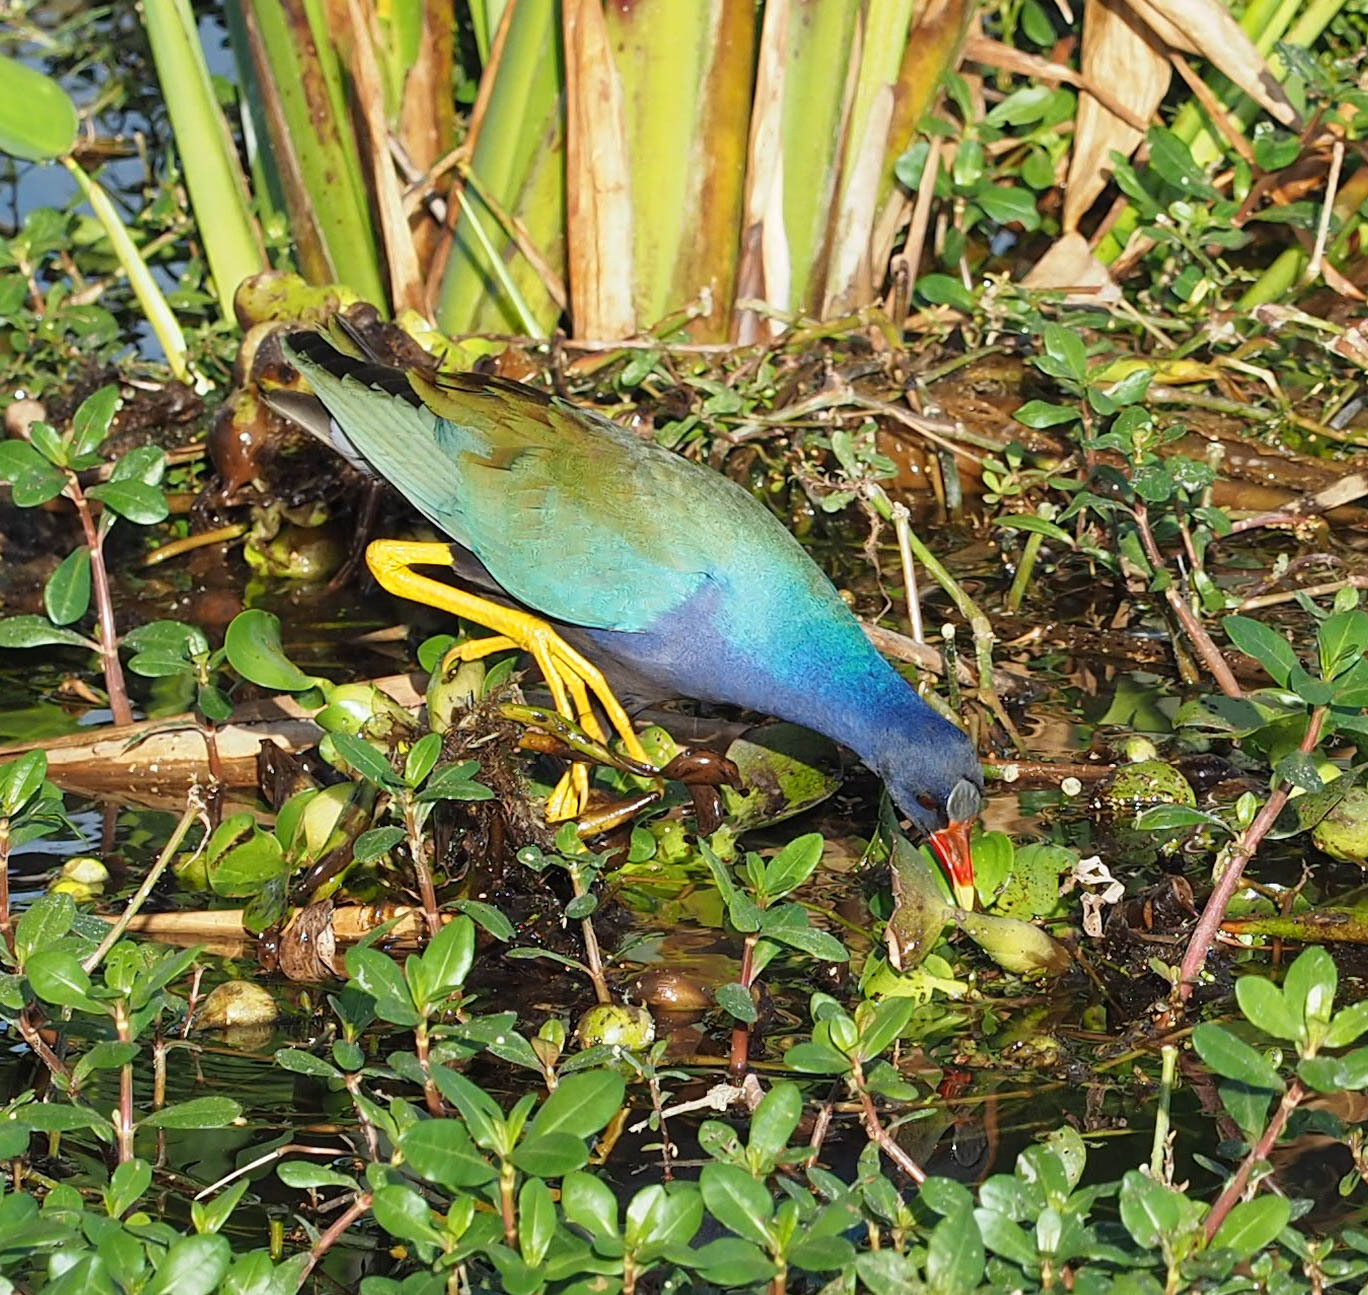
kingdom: Animalia
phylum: Chordata
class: Aves
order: Gruiformes
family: Rallidae
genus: Porphyrio
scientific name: Porphyrio martinica
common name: Purple gallinule
